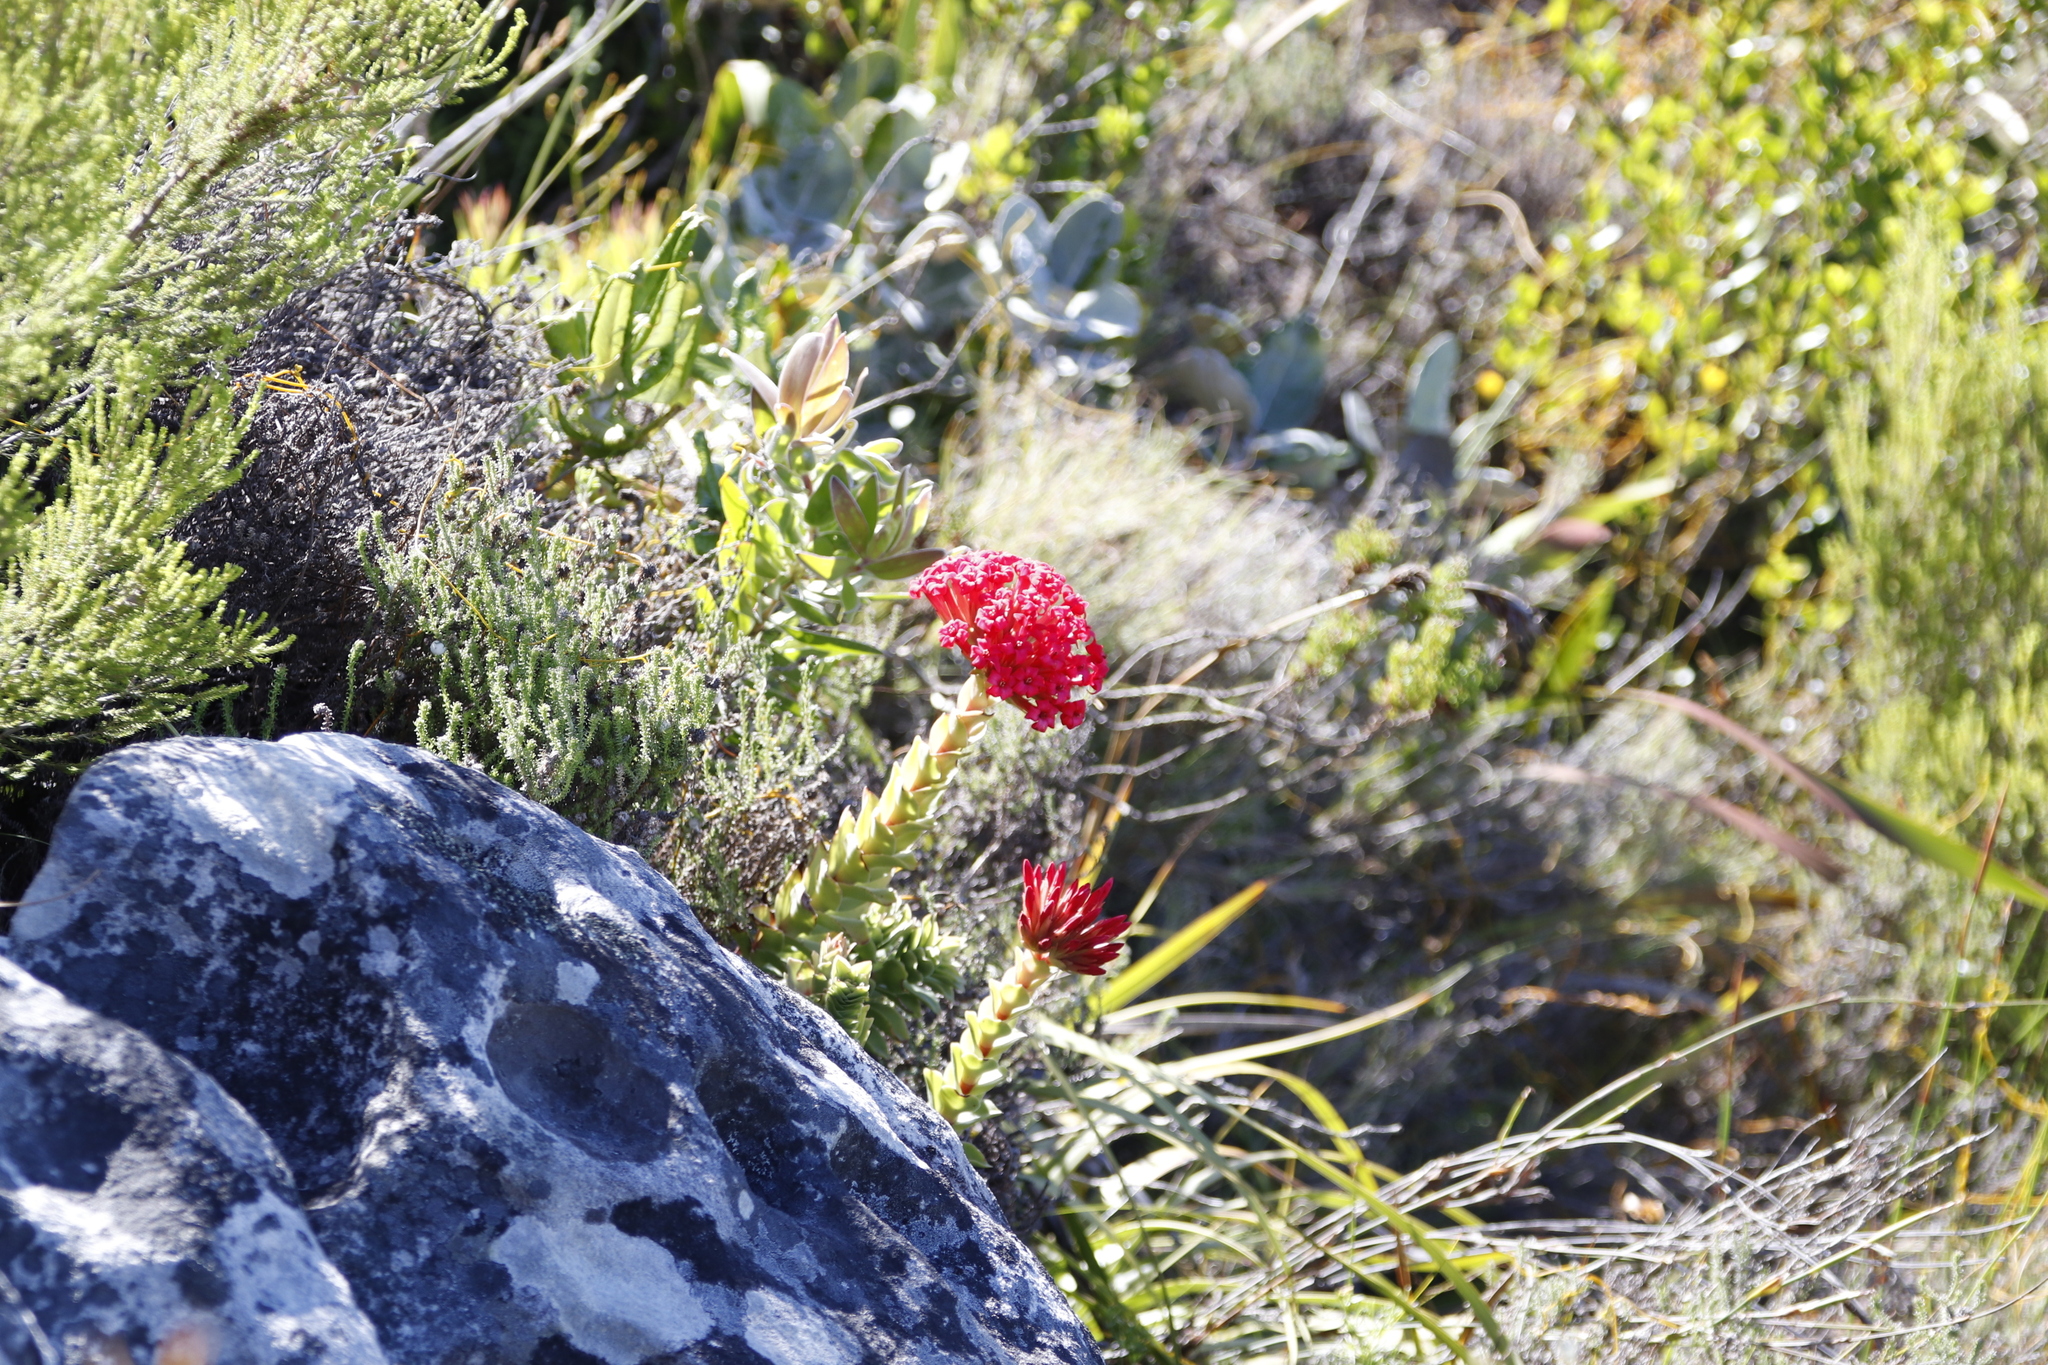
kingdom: Plantae
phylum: Tracheophyta
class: Magnoliopsida
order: Saxifragales
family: Crassulaceae
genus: Crassula
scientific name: Crassula coccinea
